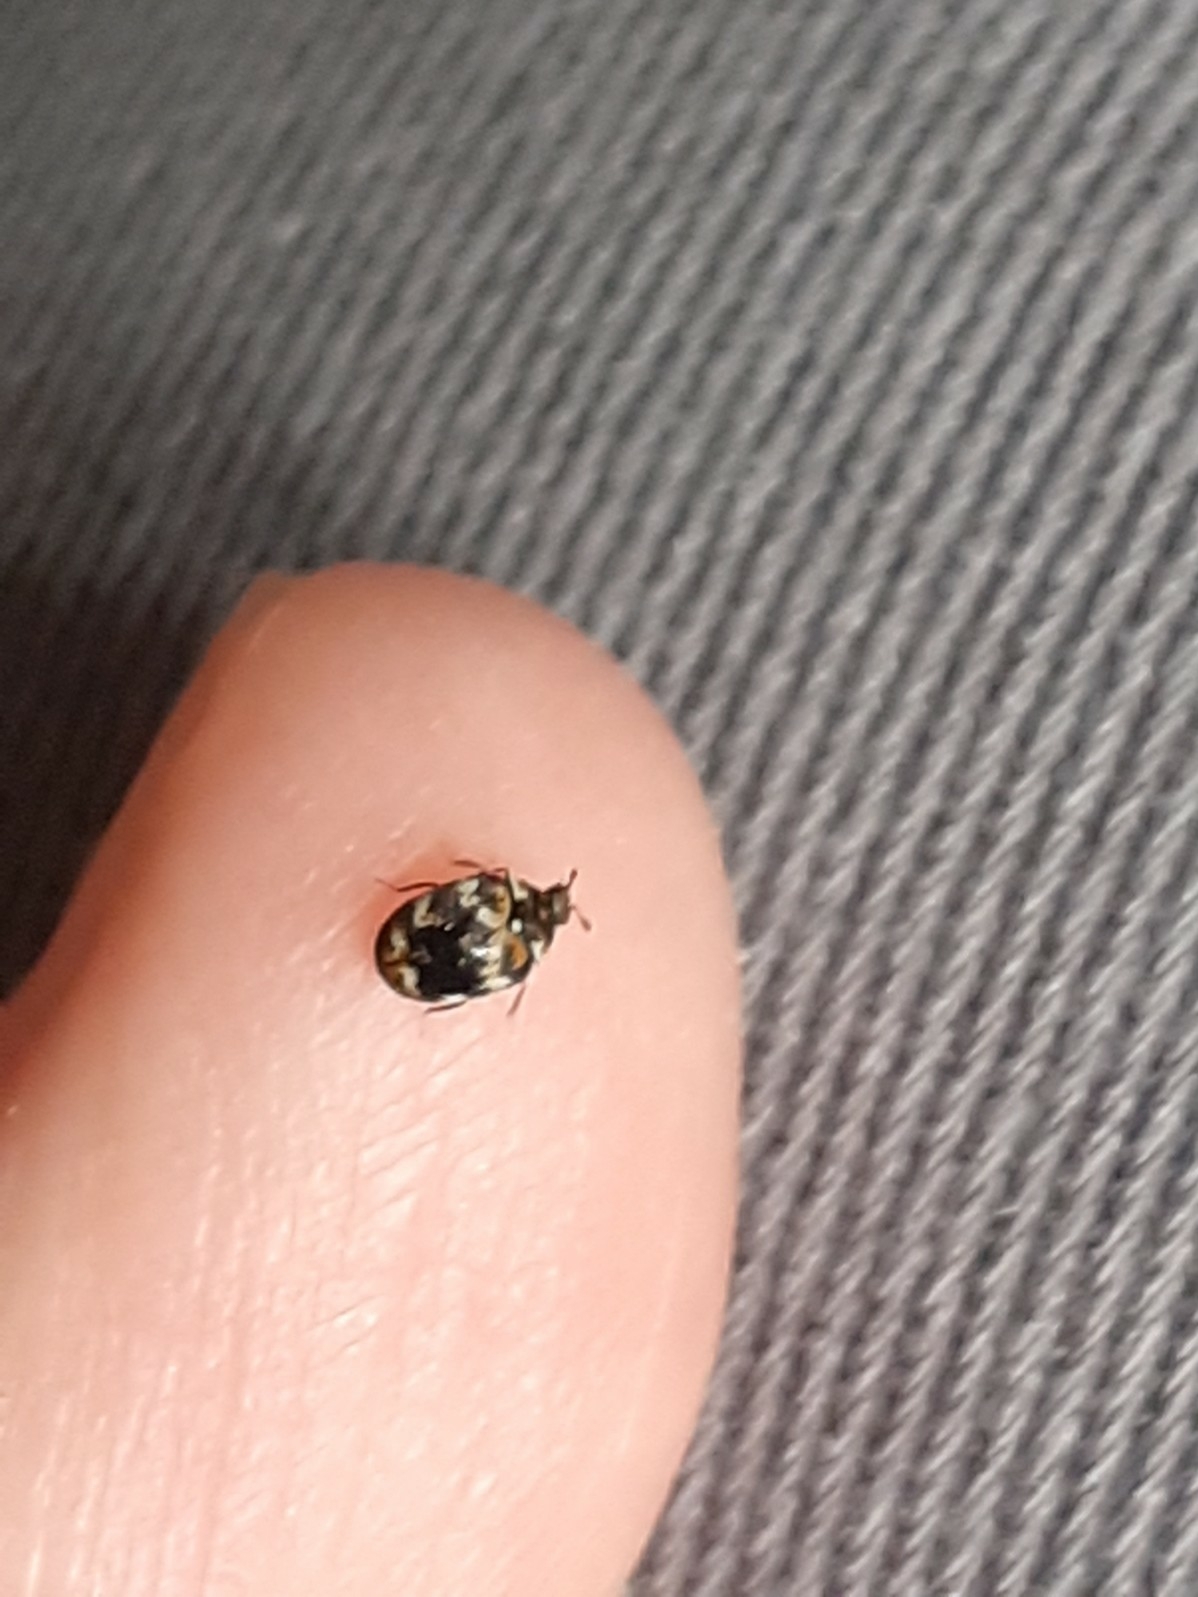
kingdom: Animalia
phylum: Arthropoda
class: Insecta
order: Coleoptera
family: Dermestidae
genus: Anthrenus
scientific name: Anthrenus verbasci
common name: Varied carpet beetle
